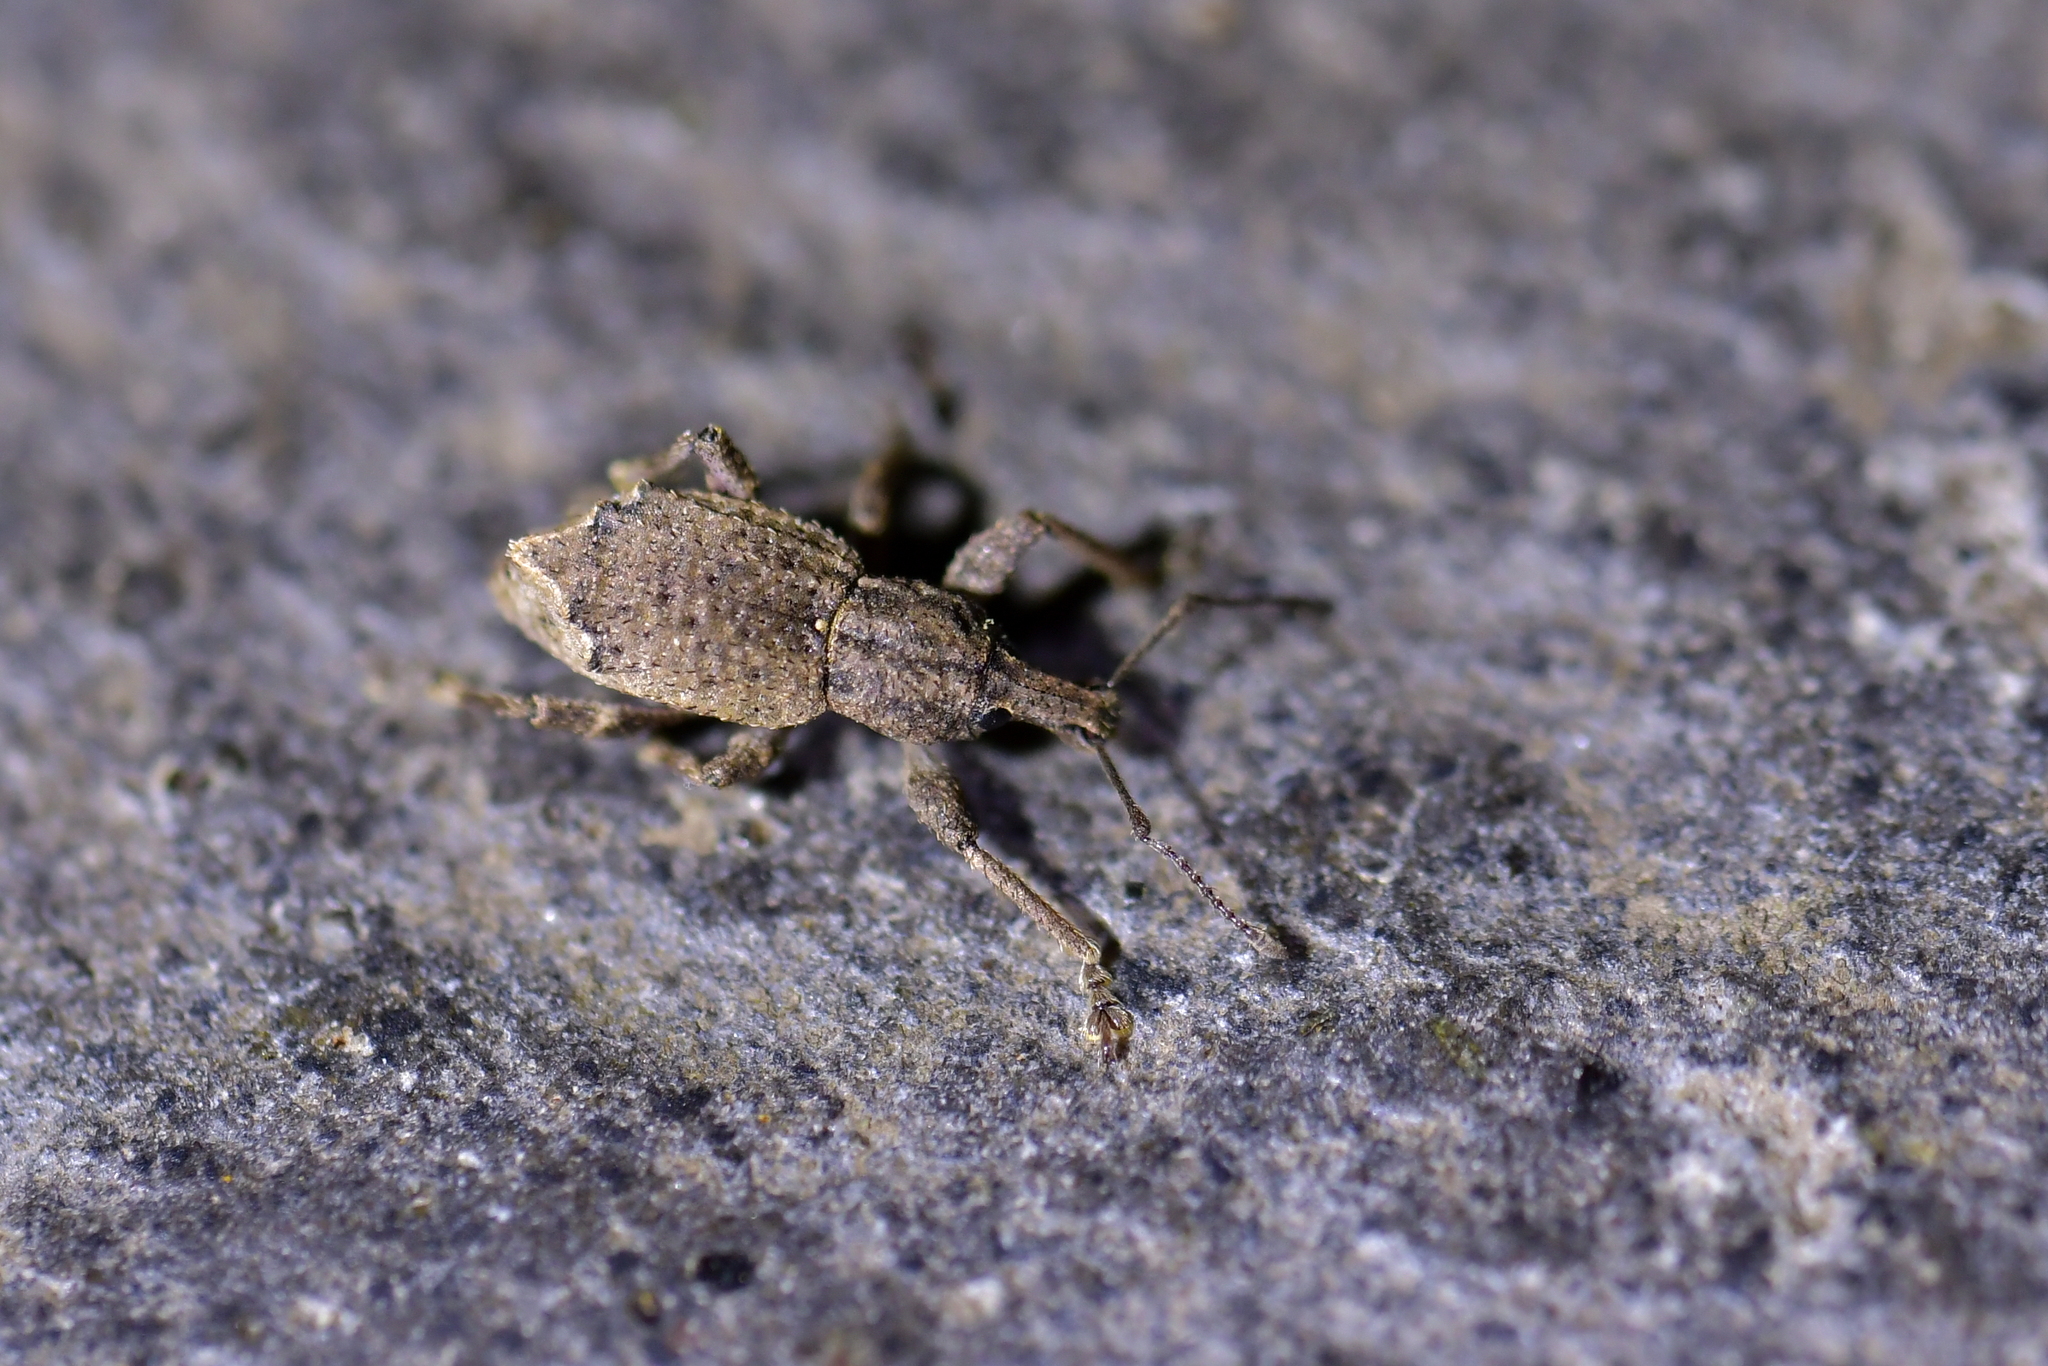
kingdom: Animalia
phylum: Arthropoda
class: Insecta
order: Coleoptera
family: Curculionidae
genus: Chalepistes
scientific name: Chalepistes rhesus
